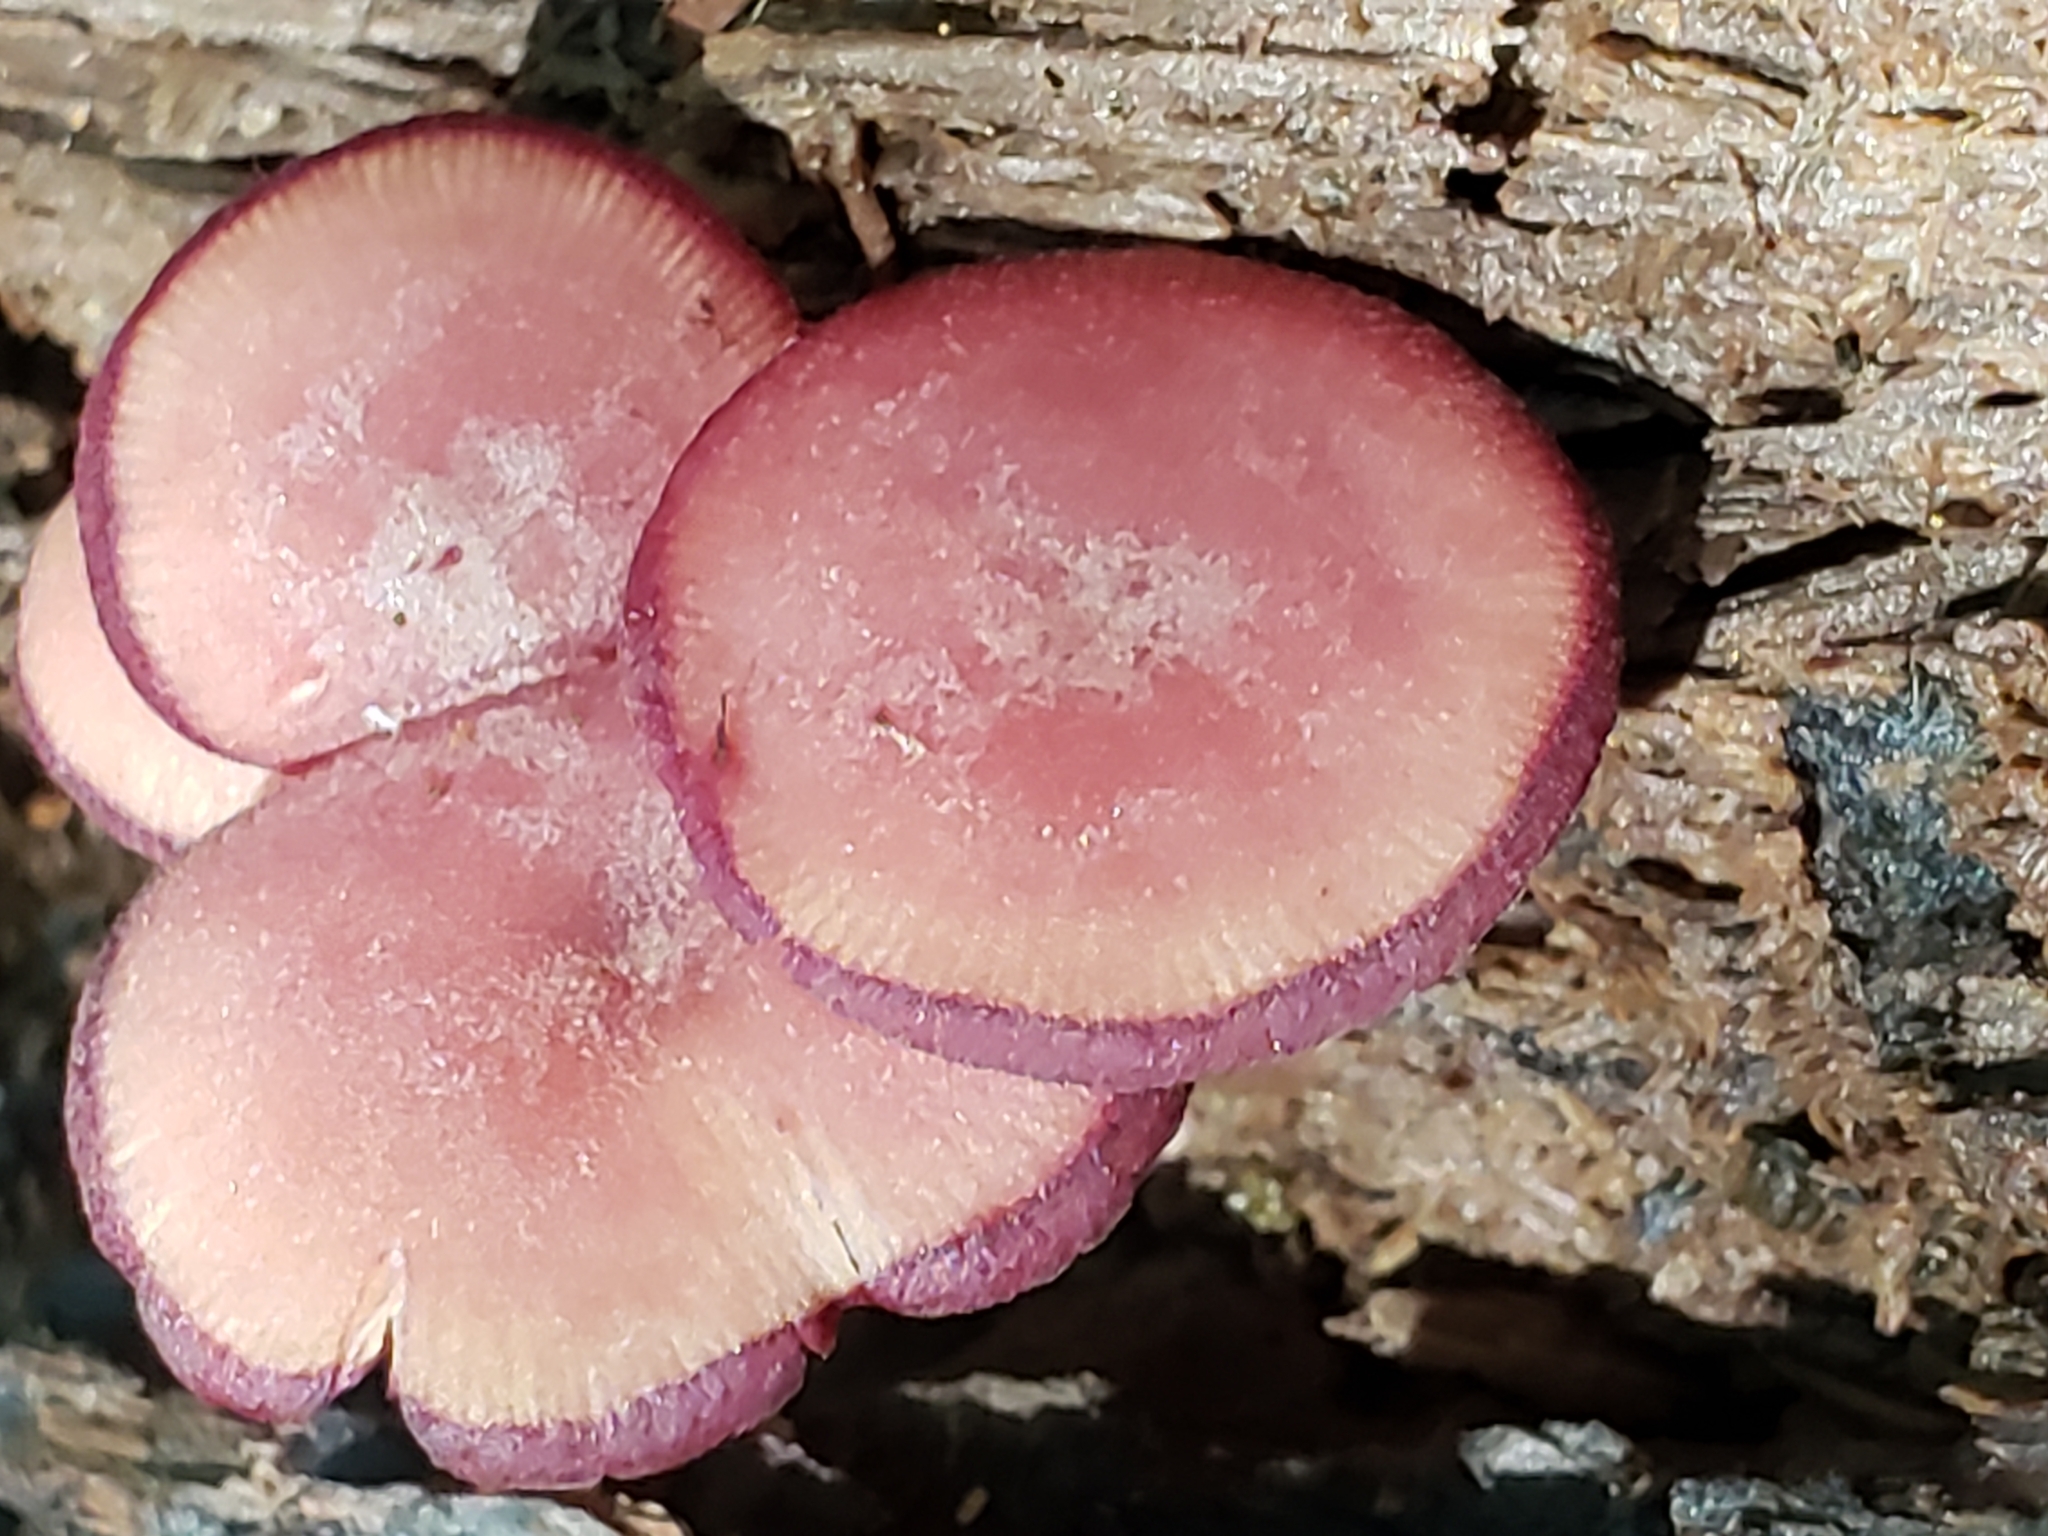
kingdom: Fungi
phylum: Basidiomycota
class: Agaricomycetes
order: Agaricales
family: Callistosporiaceae
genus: Callistosporium
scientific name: Callistosporium purpureomarginatum
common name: Purple-edged lute
